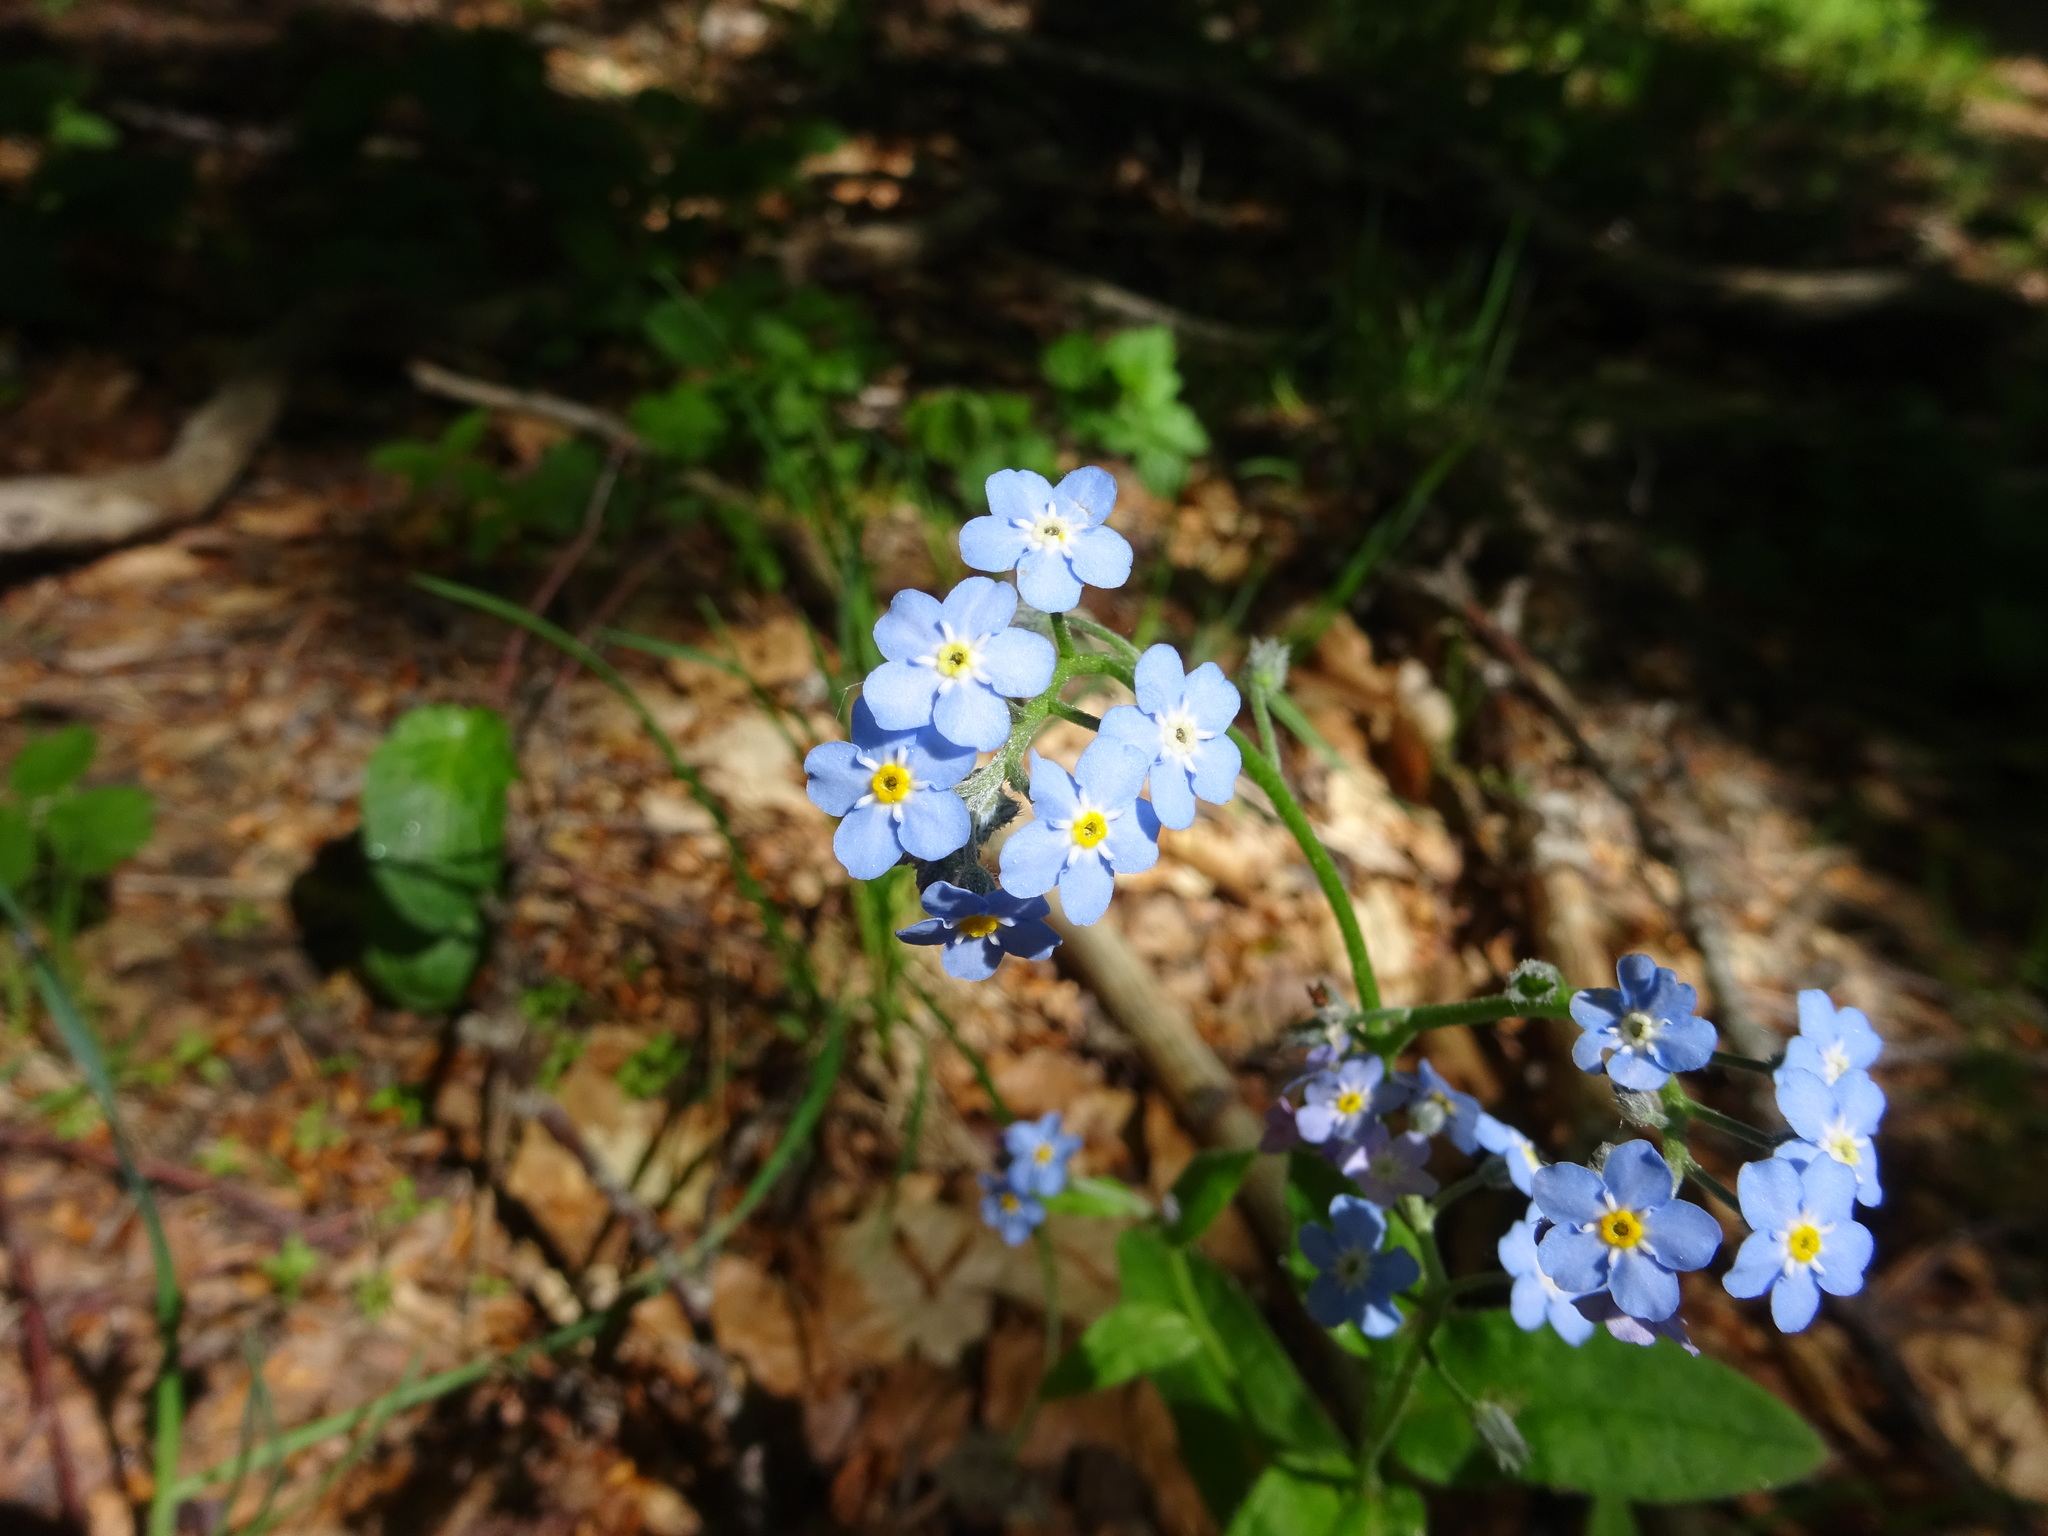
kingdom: Plantae
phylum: Tracheophyta
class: Magnoliopsida
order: Boraginales
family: Boraginaceae
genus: Myosotis
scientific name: Myosotis sylvatica
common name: Wood forget-me-not
